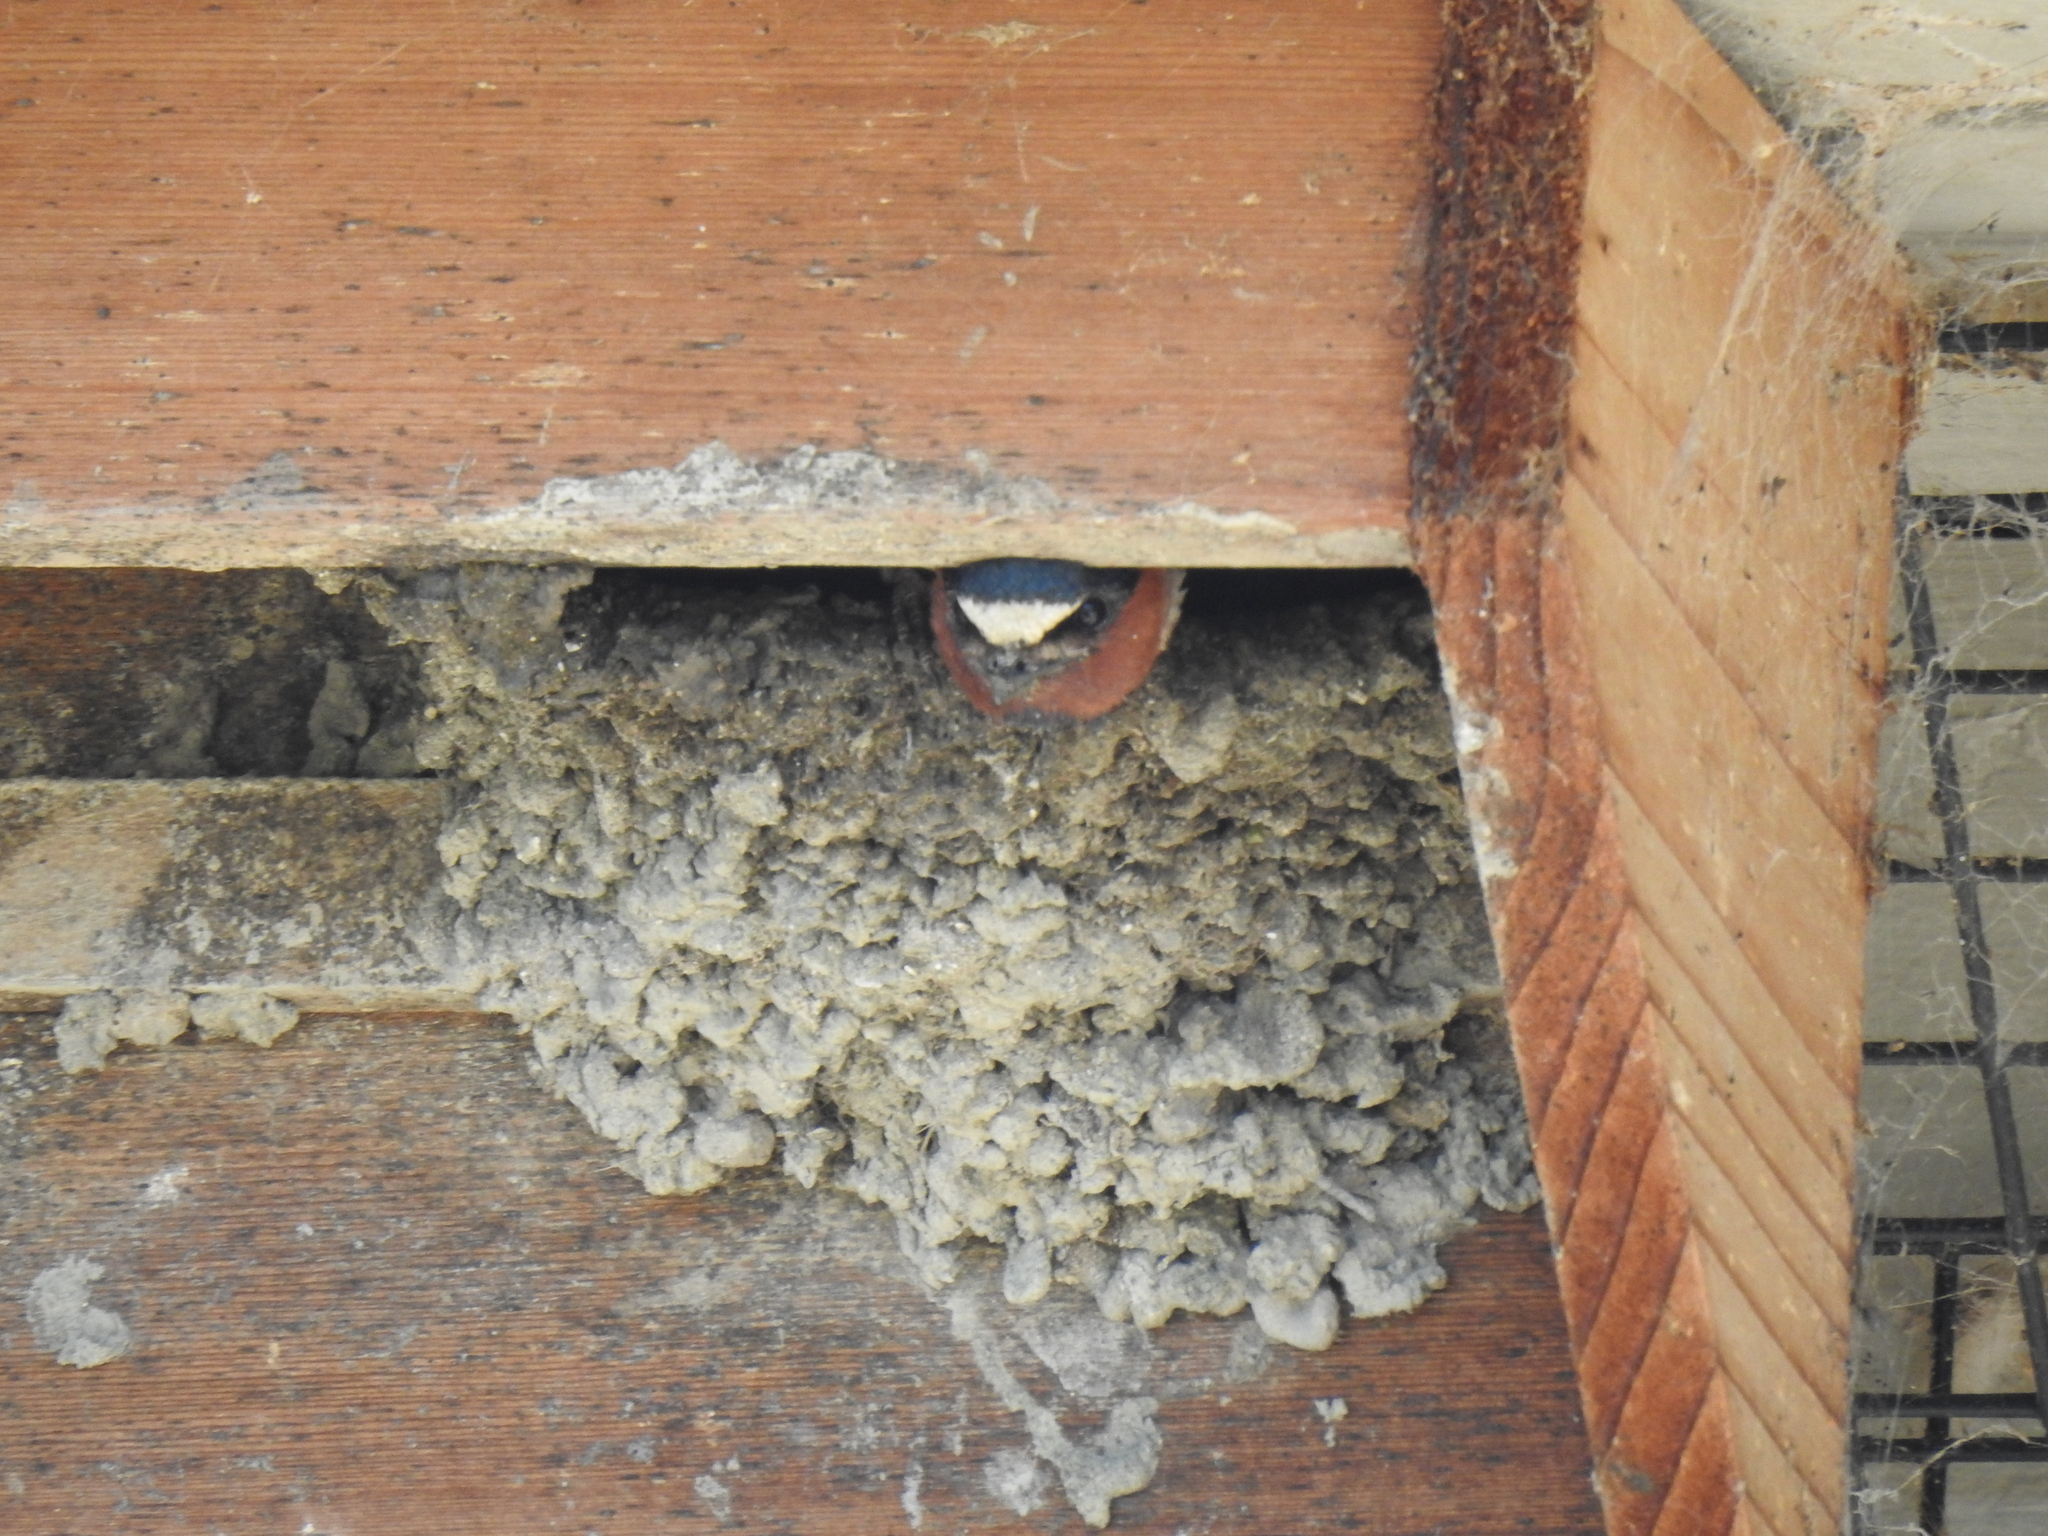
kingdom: Animalia
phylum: Chordata
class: Aves
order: Passeriformes
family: Hirundinidae
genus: Petrochelidon
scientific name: Petrochelidon pyrrhonota
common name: American cliff swallow
